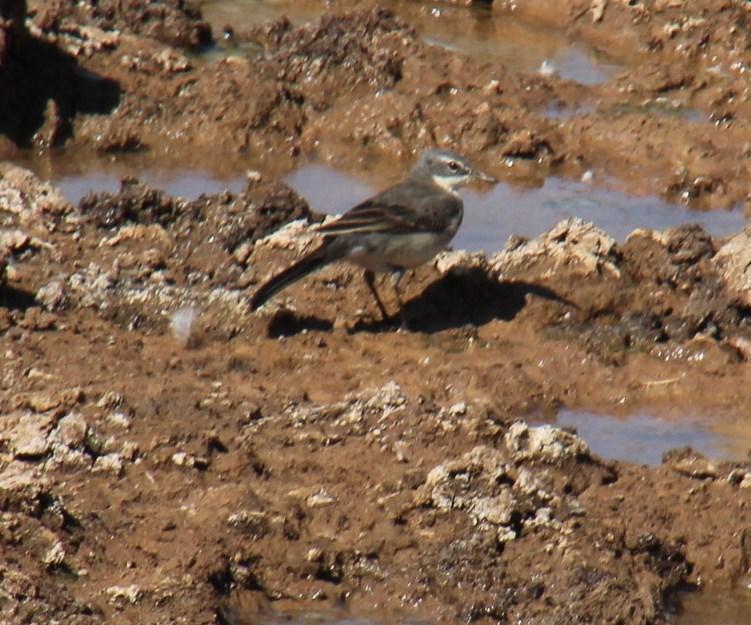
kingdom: Animalia
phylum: Chordata
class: Aves
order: Passeriformes
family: Motacillidae
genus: Motacilla
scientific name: Motacilla capensis
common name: Cape wagtail
